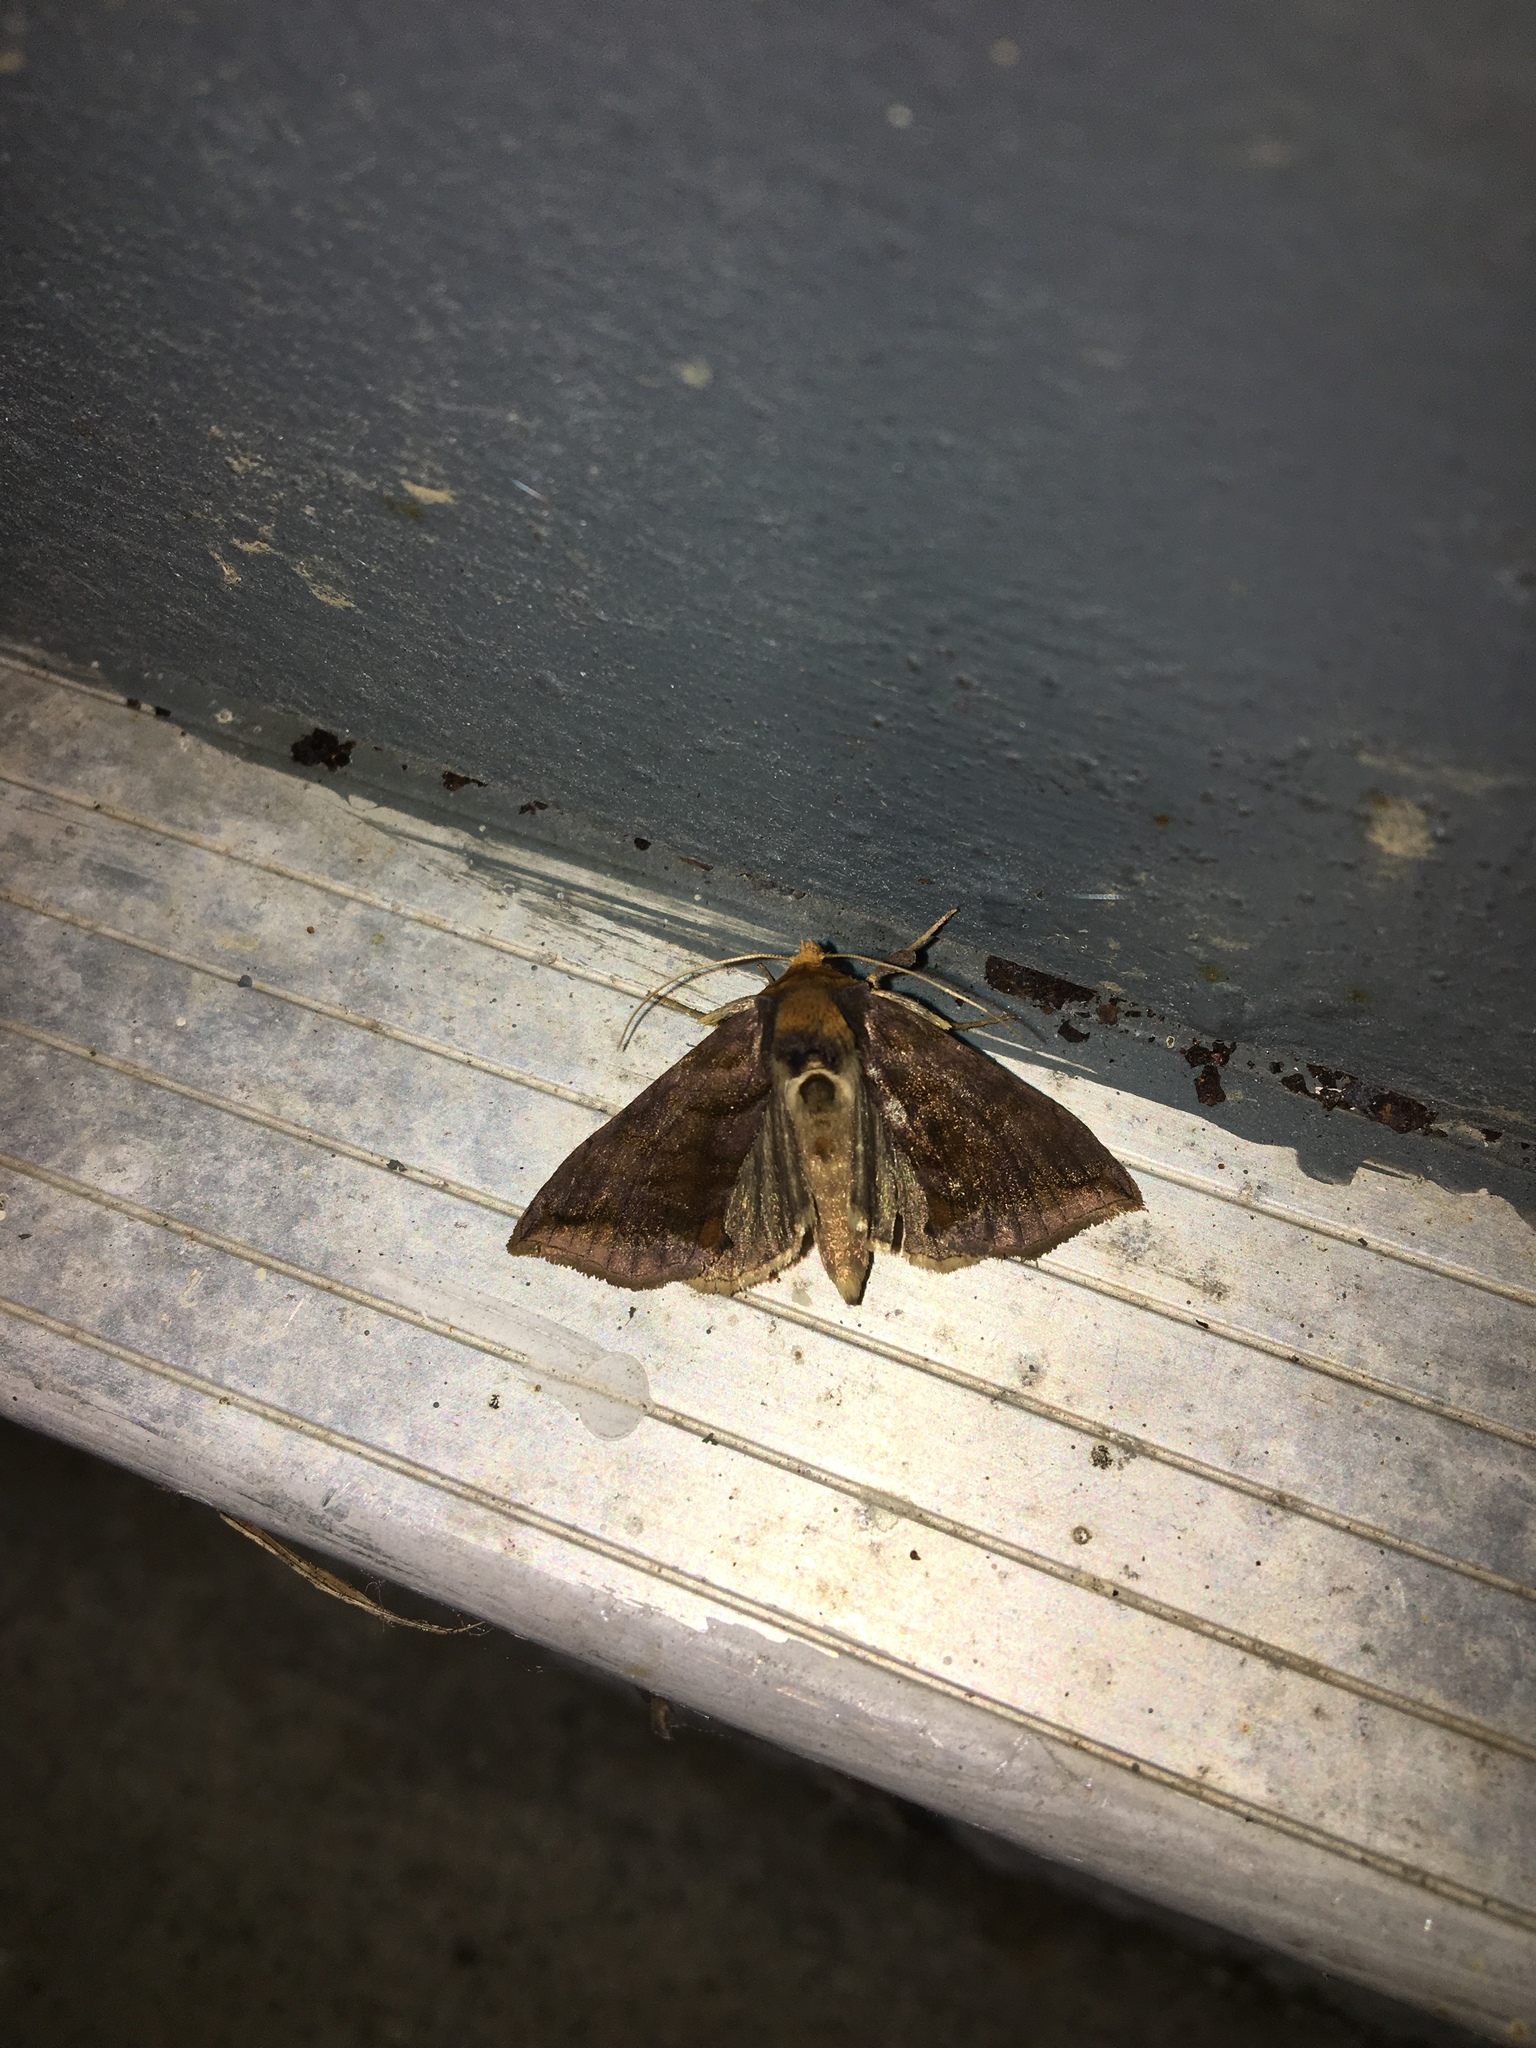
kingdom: Animalia
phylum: Arthropoda
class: Insecta
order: Lepidoptera
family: Noctuidae
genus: Allagrapha
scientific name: Allagrapha aerea
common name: Unspotted looper moth
